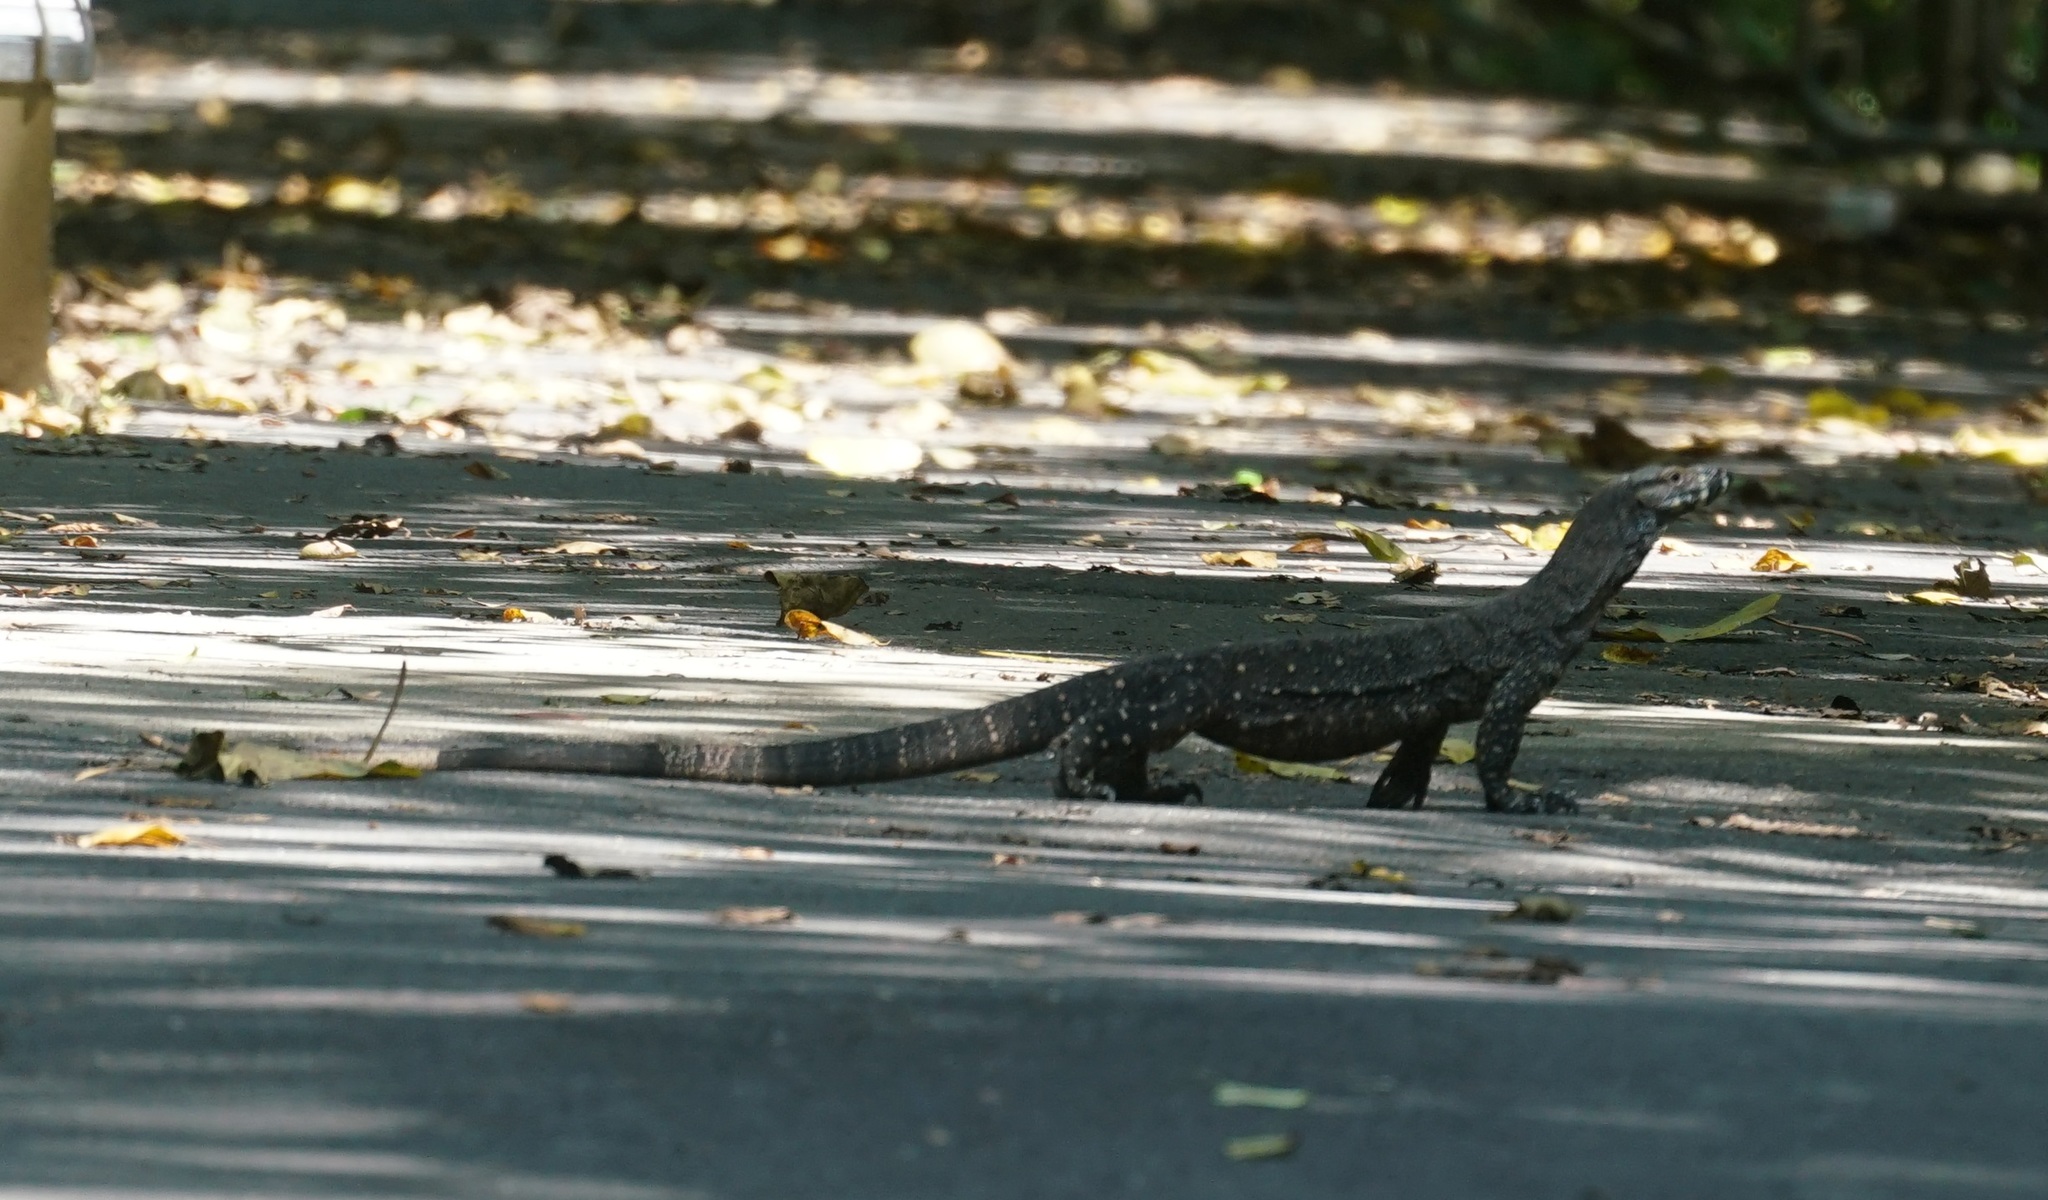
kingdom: Animalia
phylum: Chordata
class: Squamata
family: Varanidae
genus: Varanus
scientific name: Varanus varius
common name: Lace monitor
